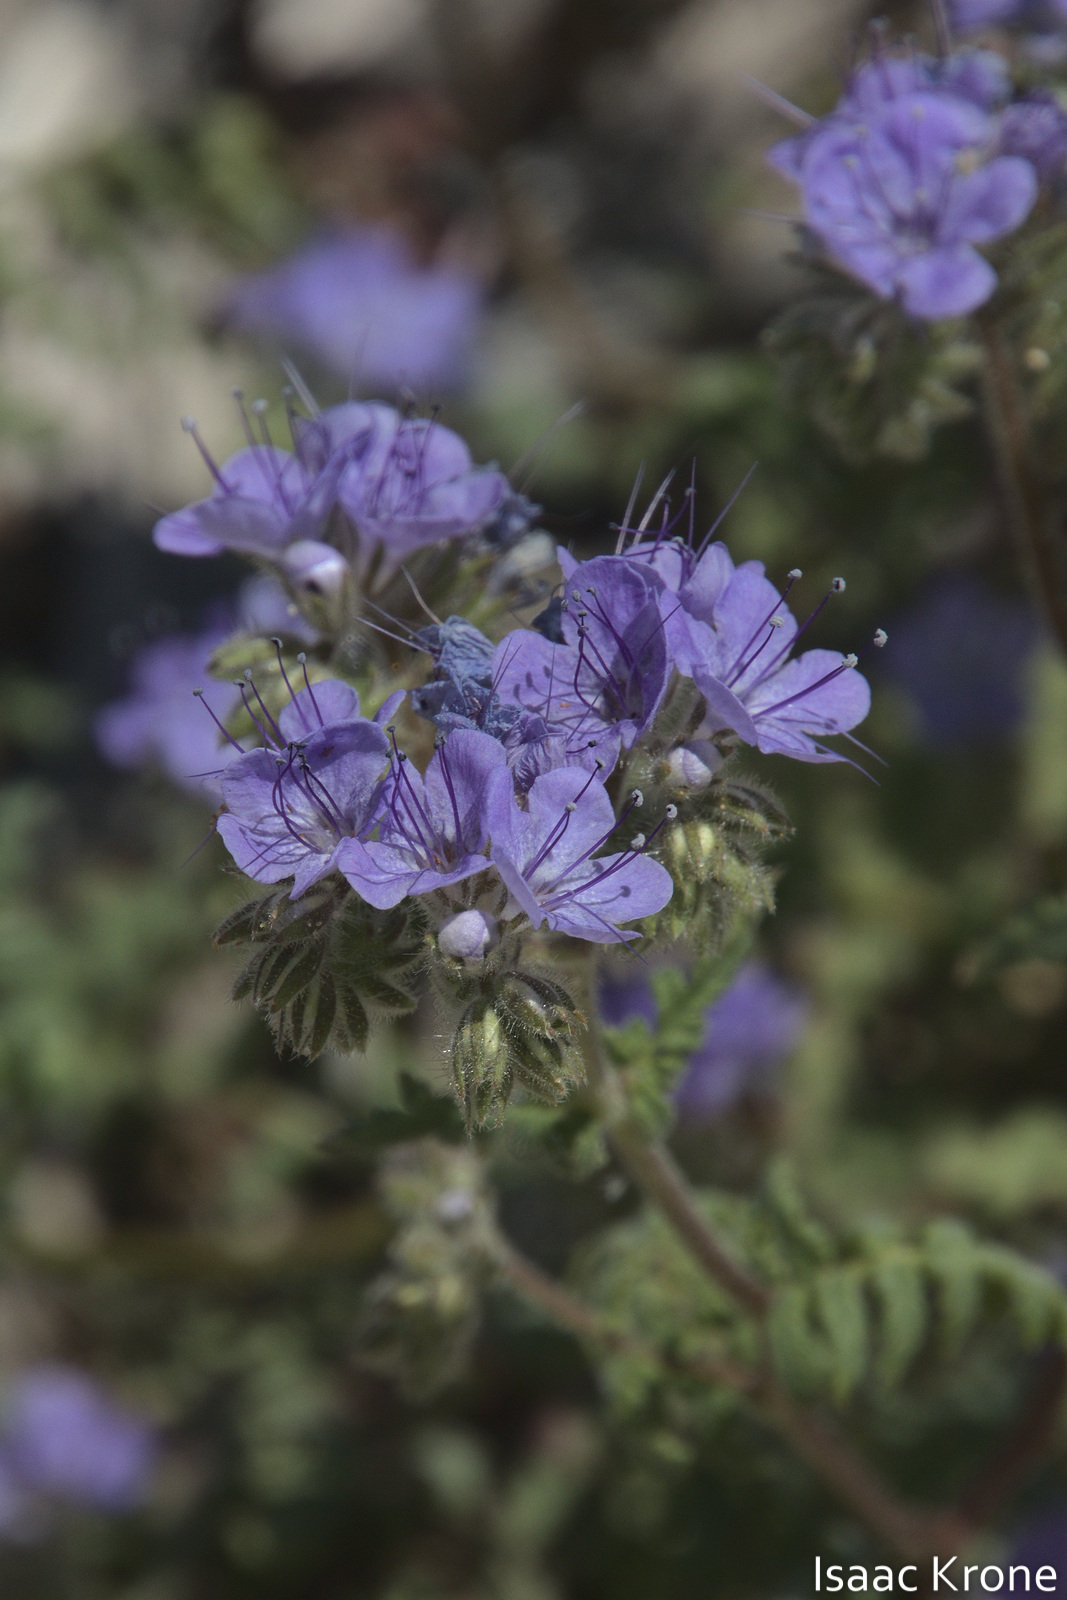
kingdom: Plantae
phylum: Tracheophyta
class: Magnoliopsida
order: Boraginales
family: Hydrophyllaceae
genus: Phacelia
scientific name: Phacelia distans
